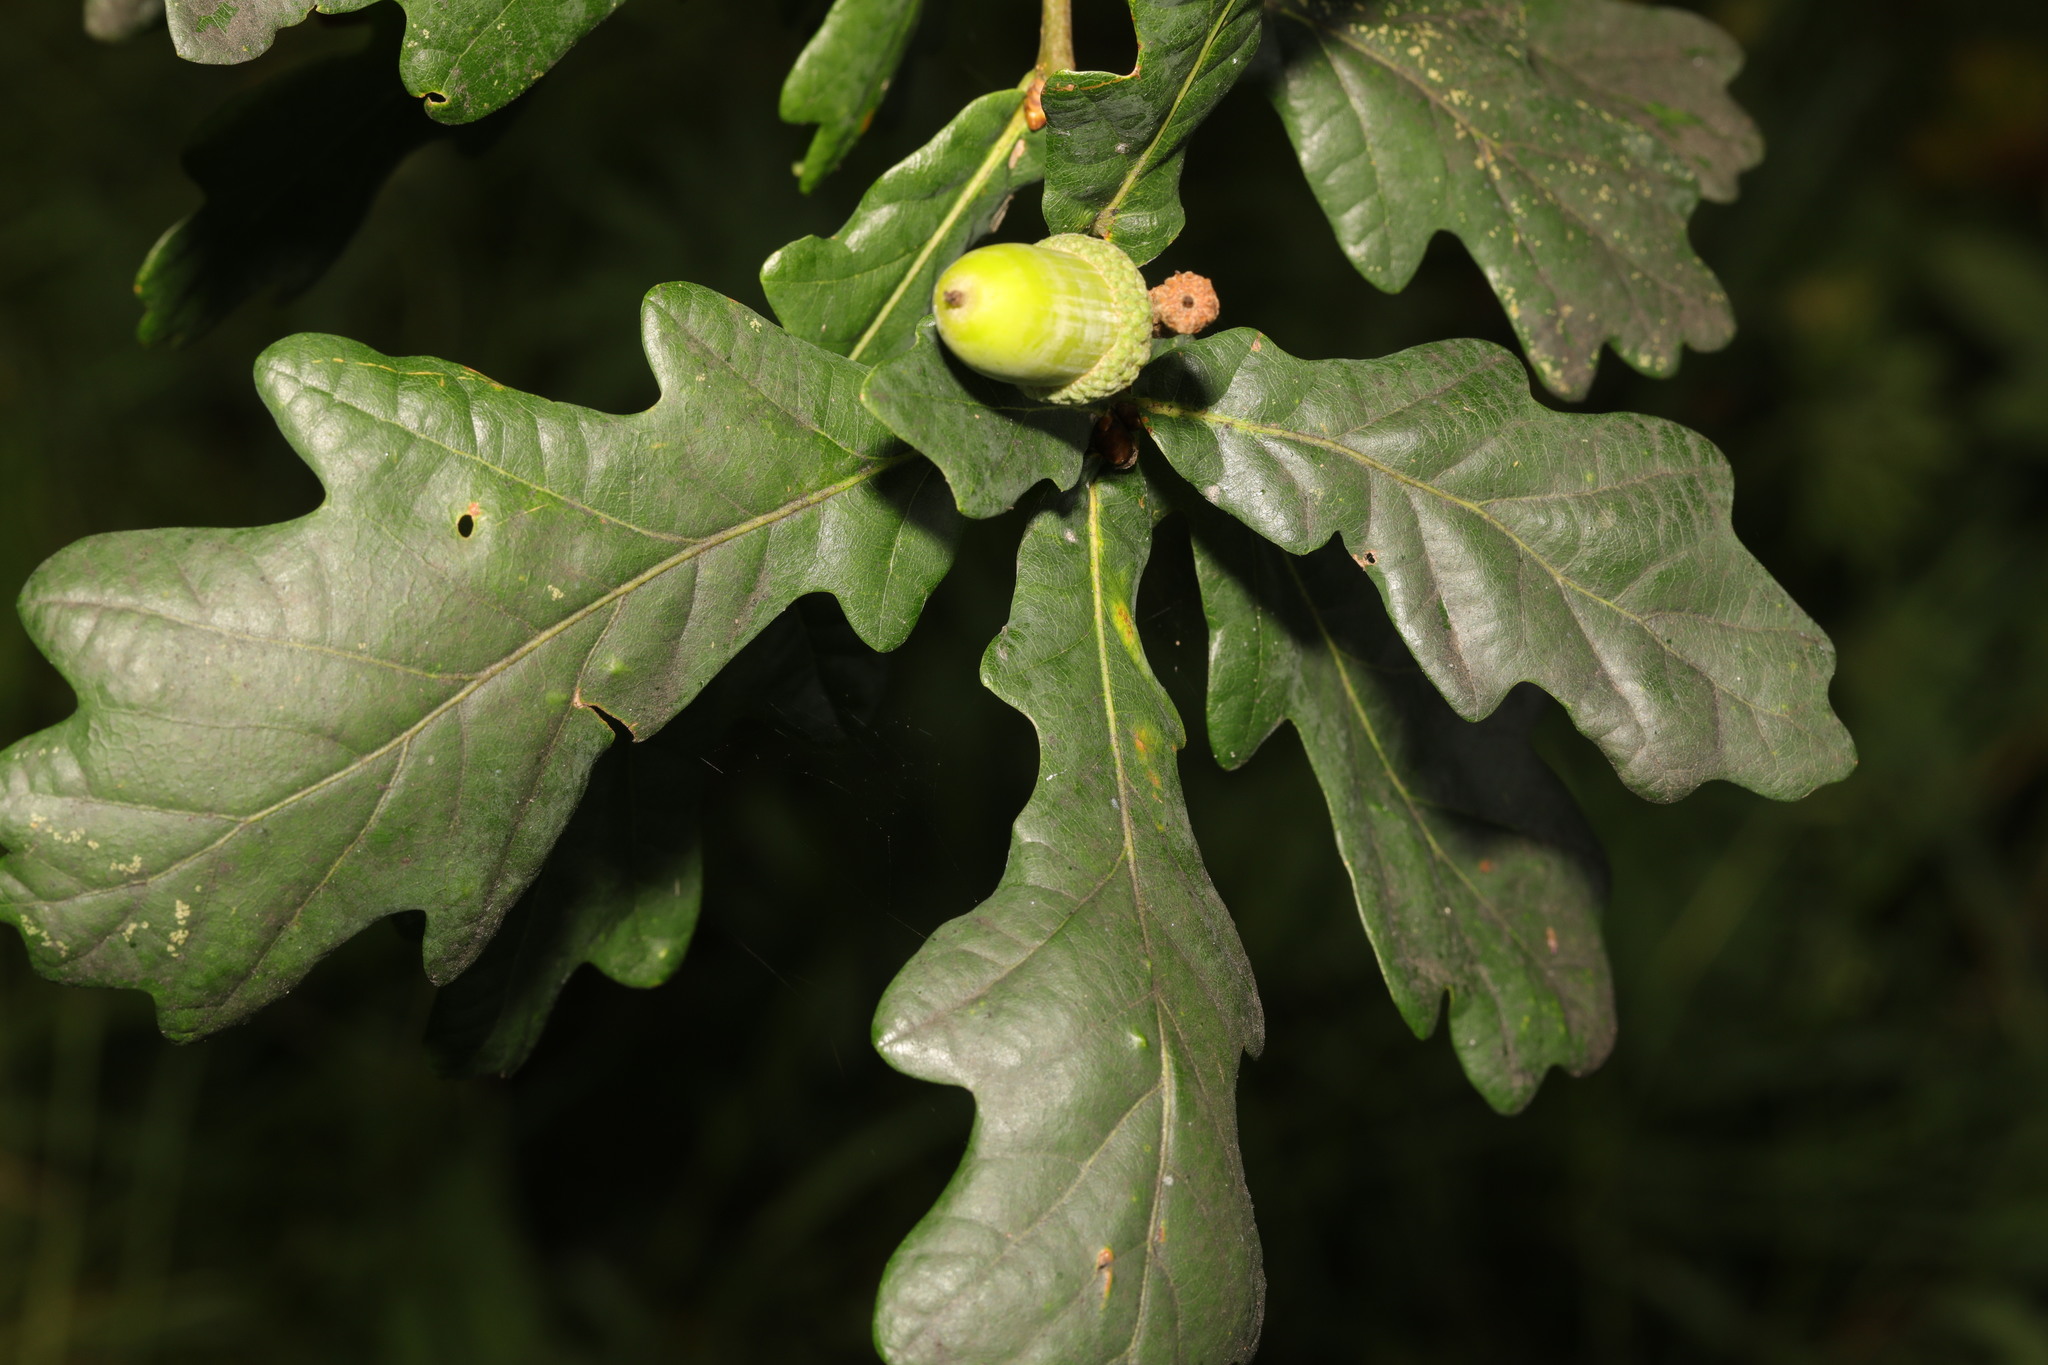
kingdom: Plantae
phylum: Tracheophyta
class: Magnoliopsida
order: Fagales
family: Fagaceae
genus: Quercus
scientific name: Quercus robur
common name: Pedunculate oak
